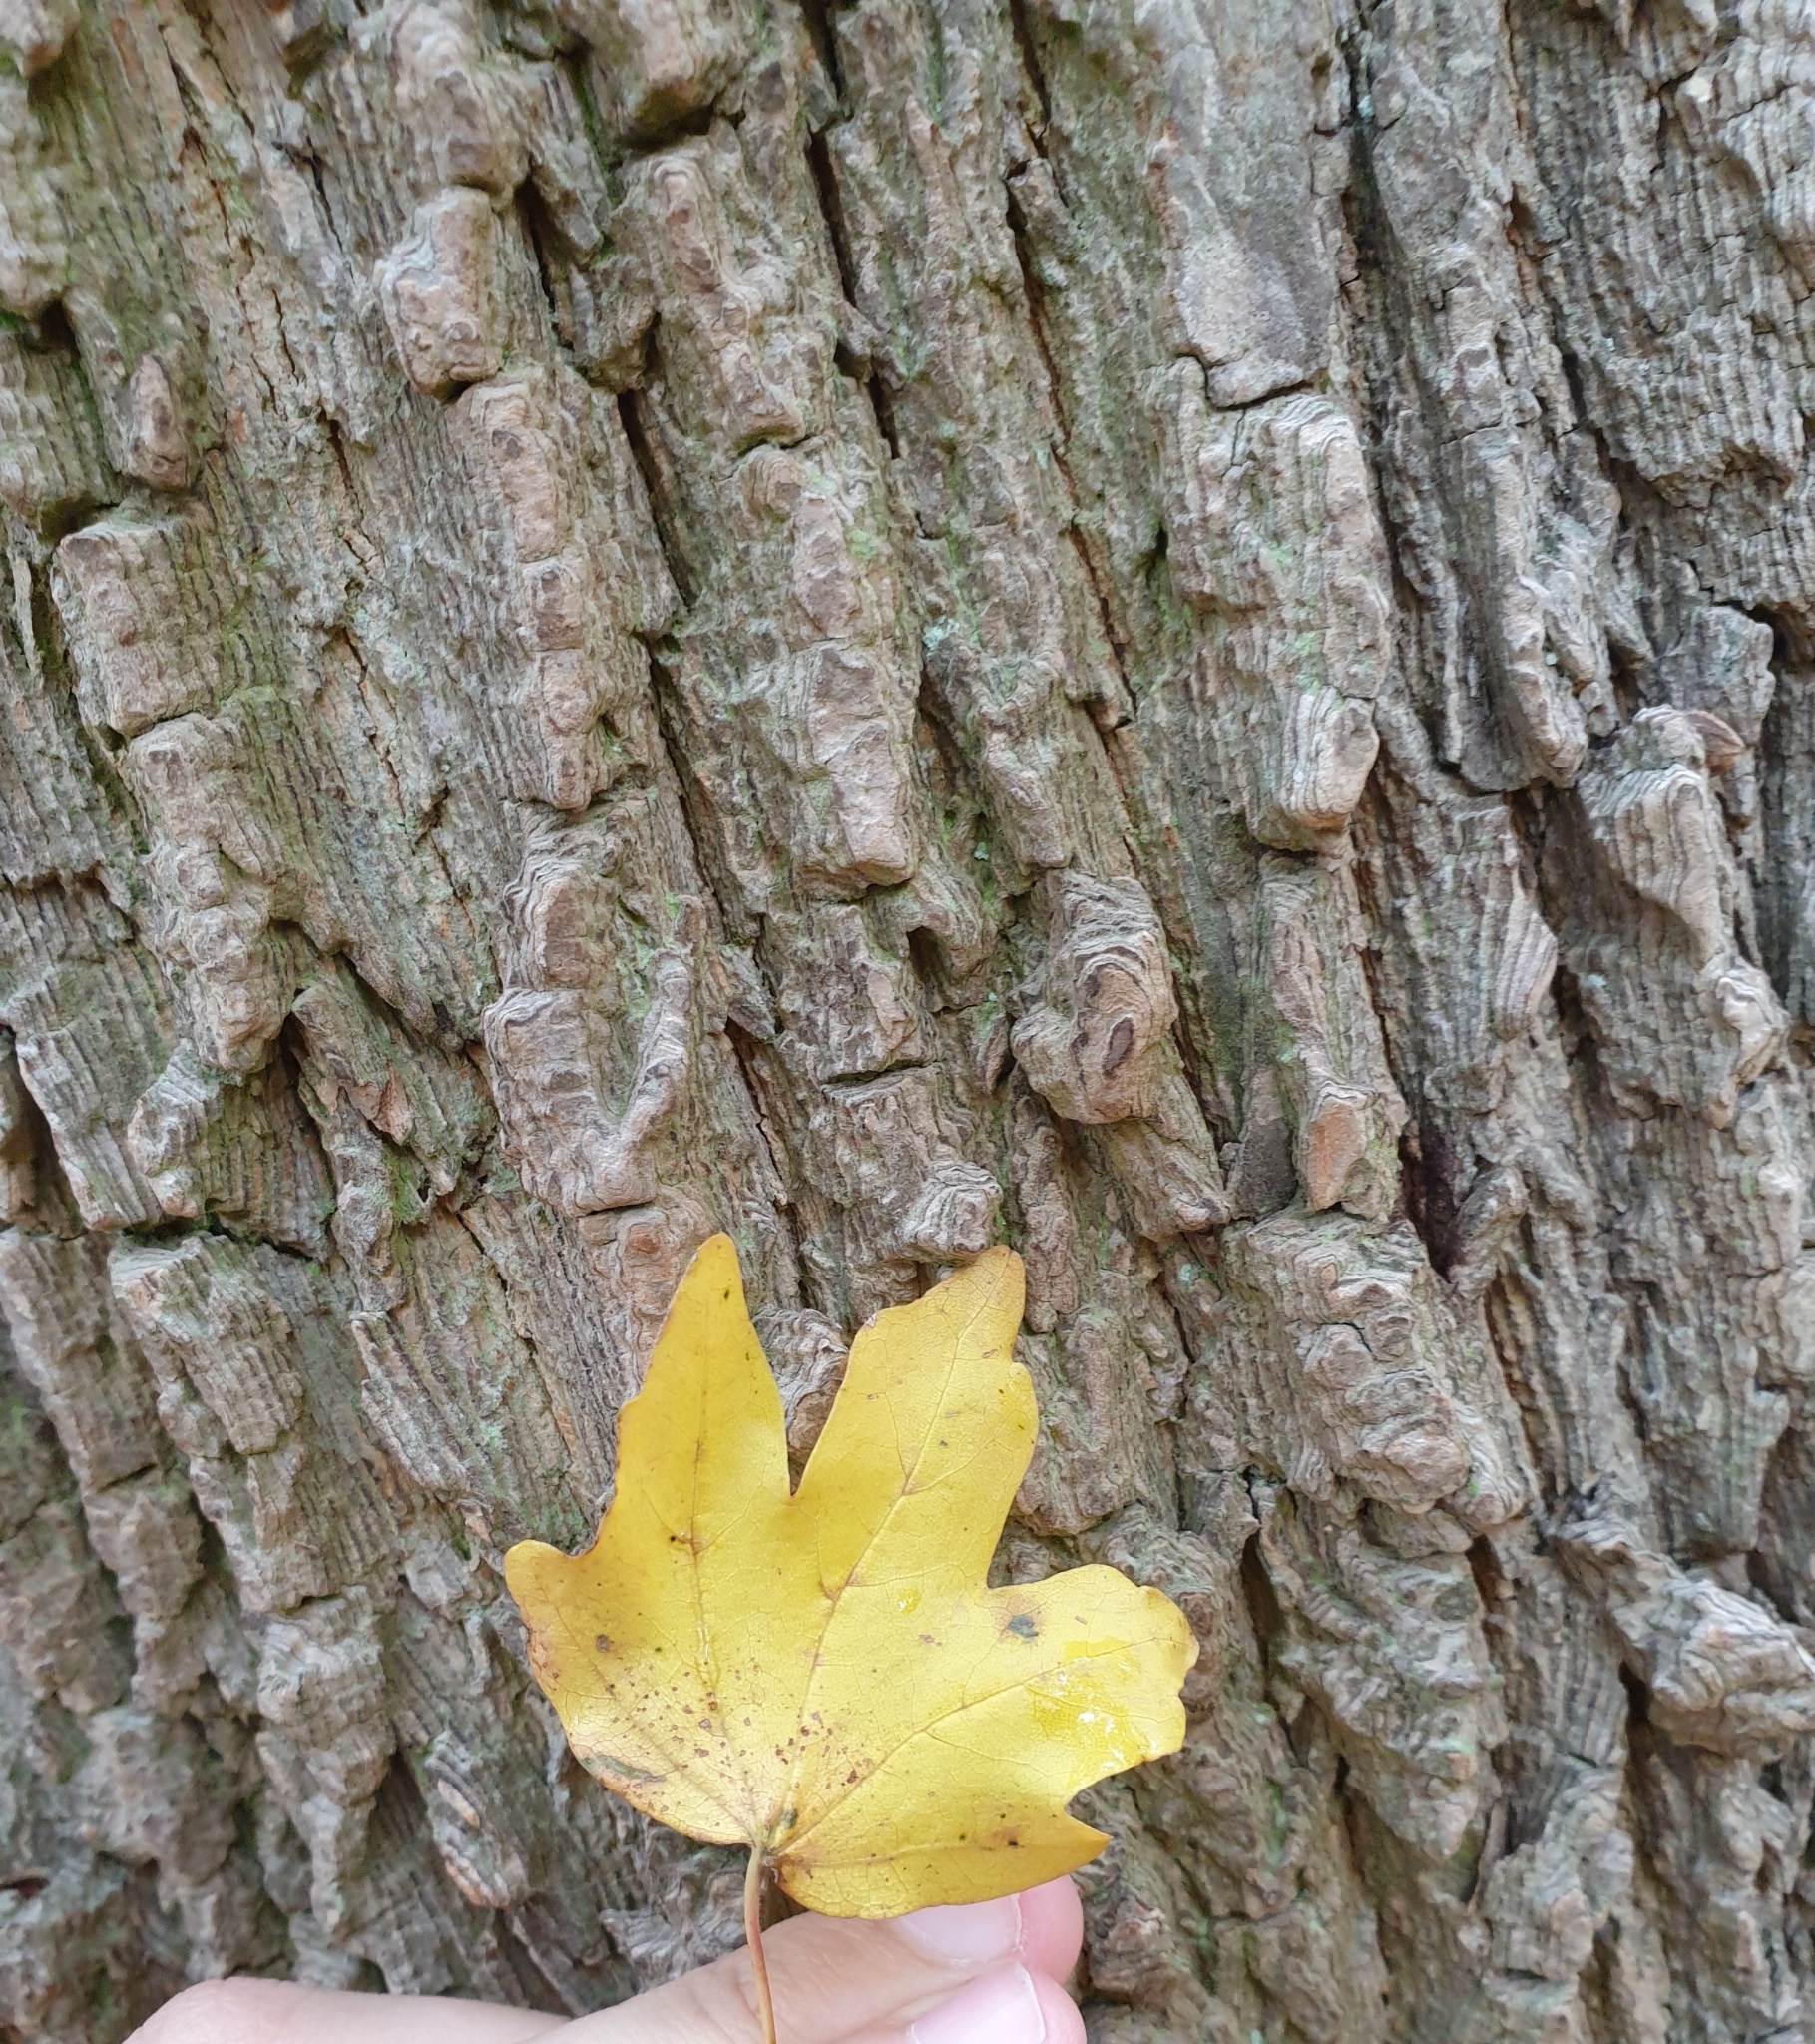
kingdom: Plantae
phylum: Tracheophyta
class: Magnoliopsida
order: Sapindales
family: Sapindaceae
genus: Acer
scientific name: Acer campestre
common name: Field maple
